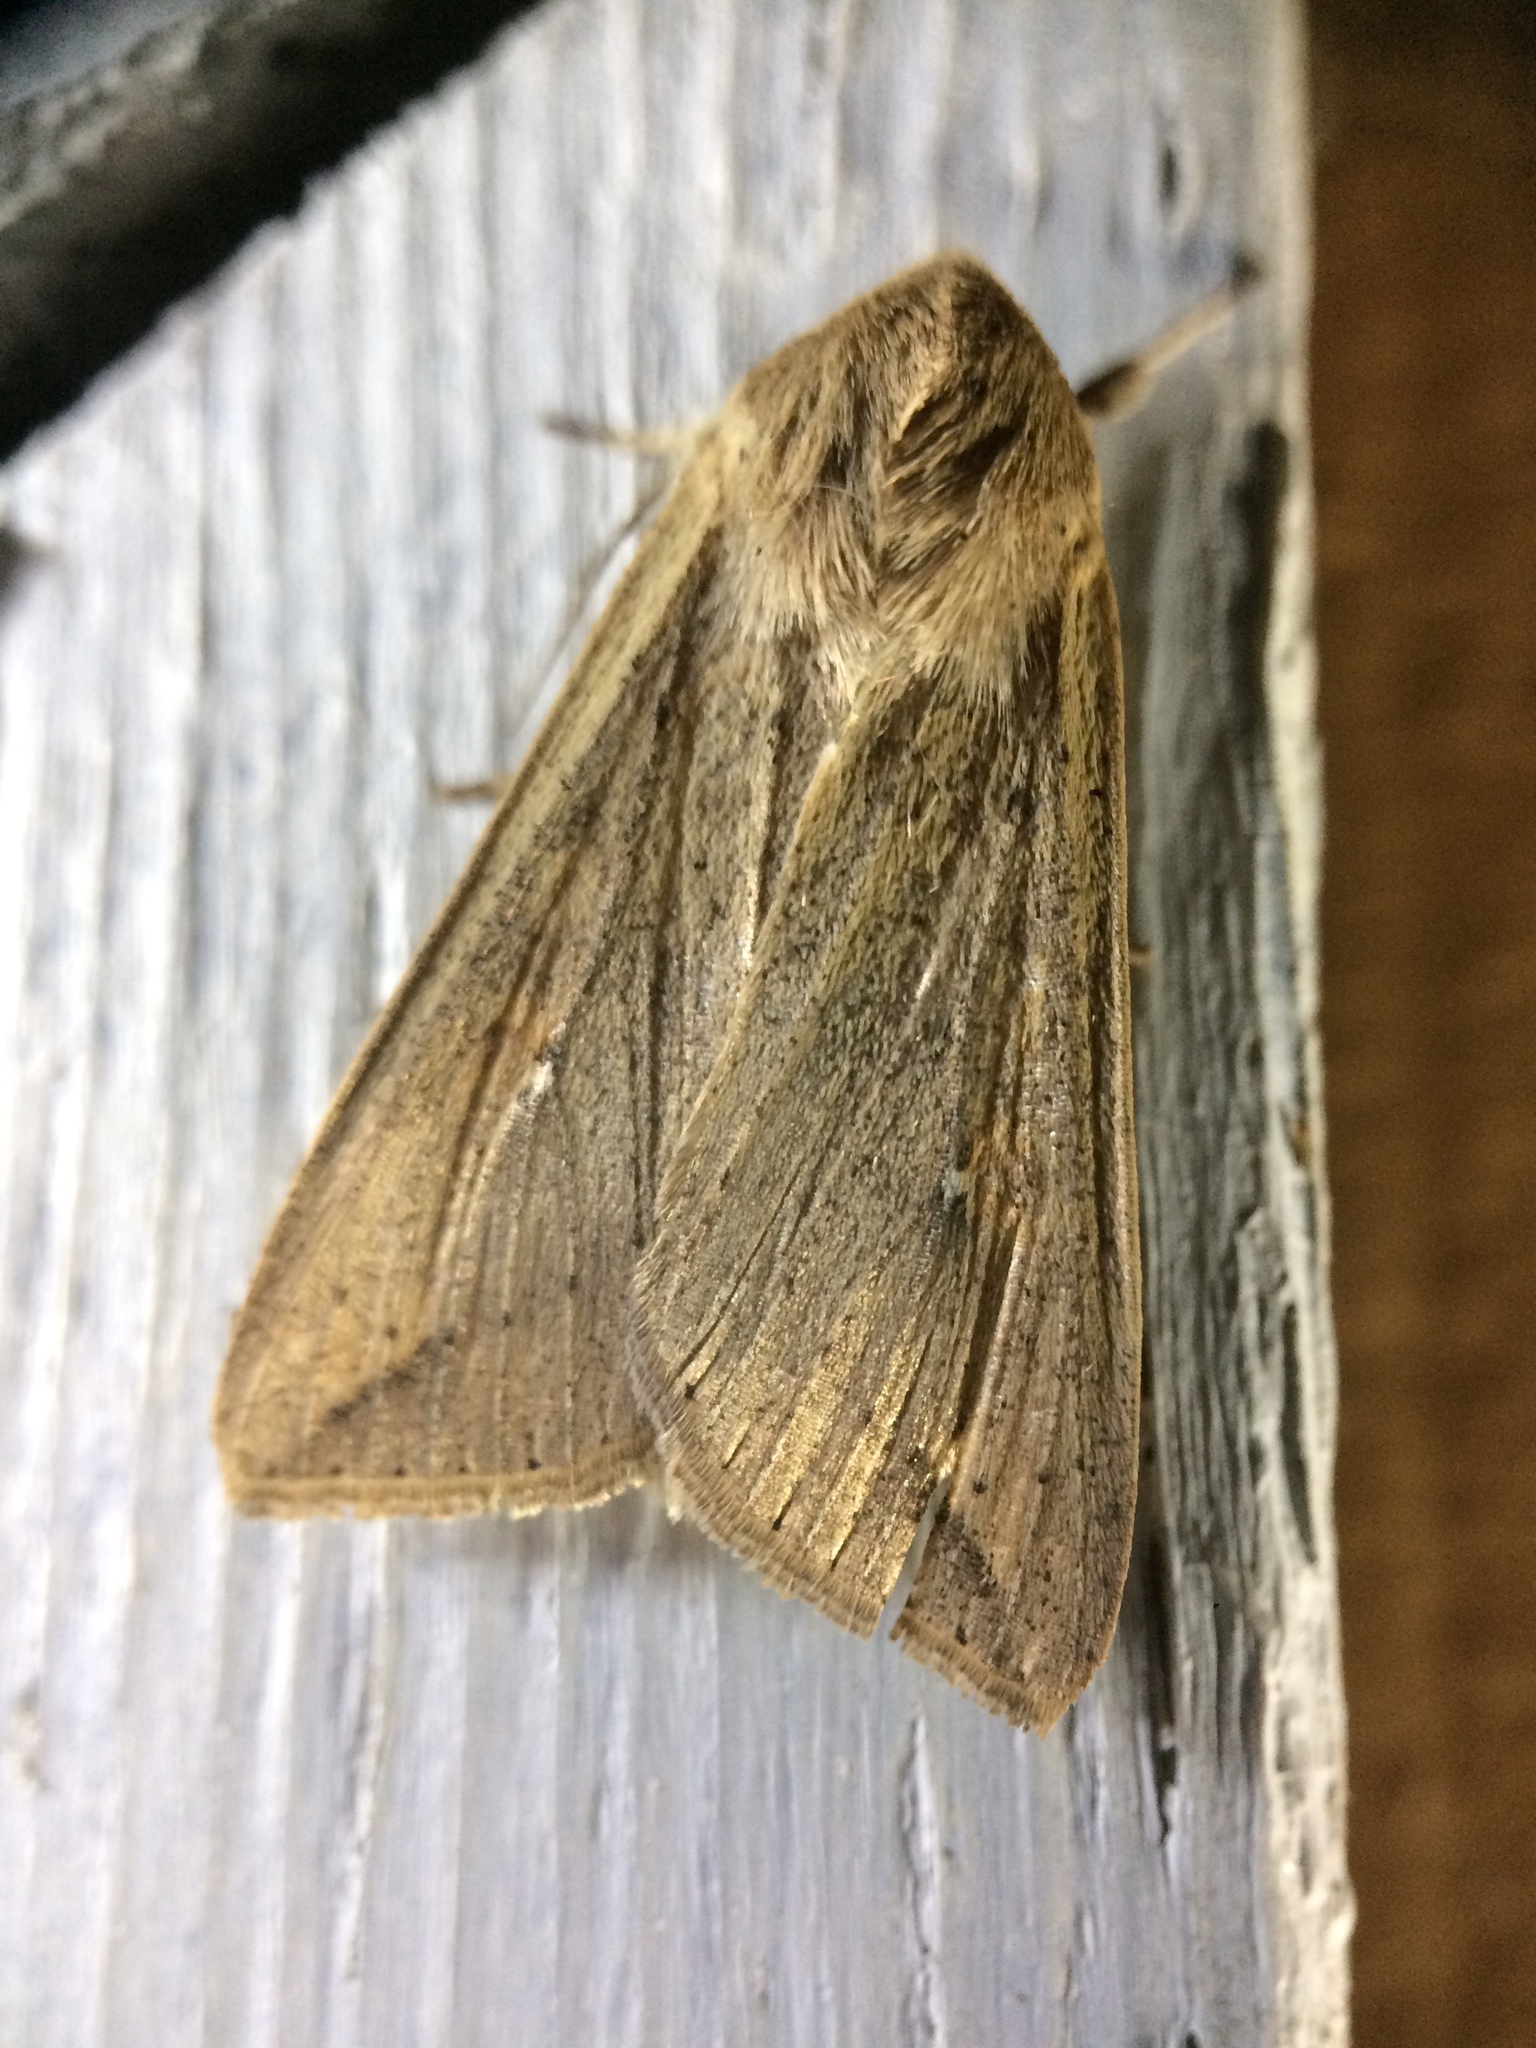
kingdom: Animalia
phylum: Arthropoda
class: Insecta
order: Lepidoptera
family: Noctuidae
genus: Mythimna
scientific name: Mythimna unipuncta
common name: White-speck
